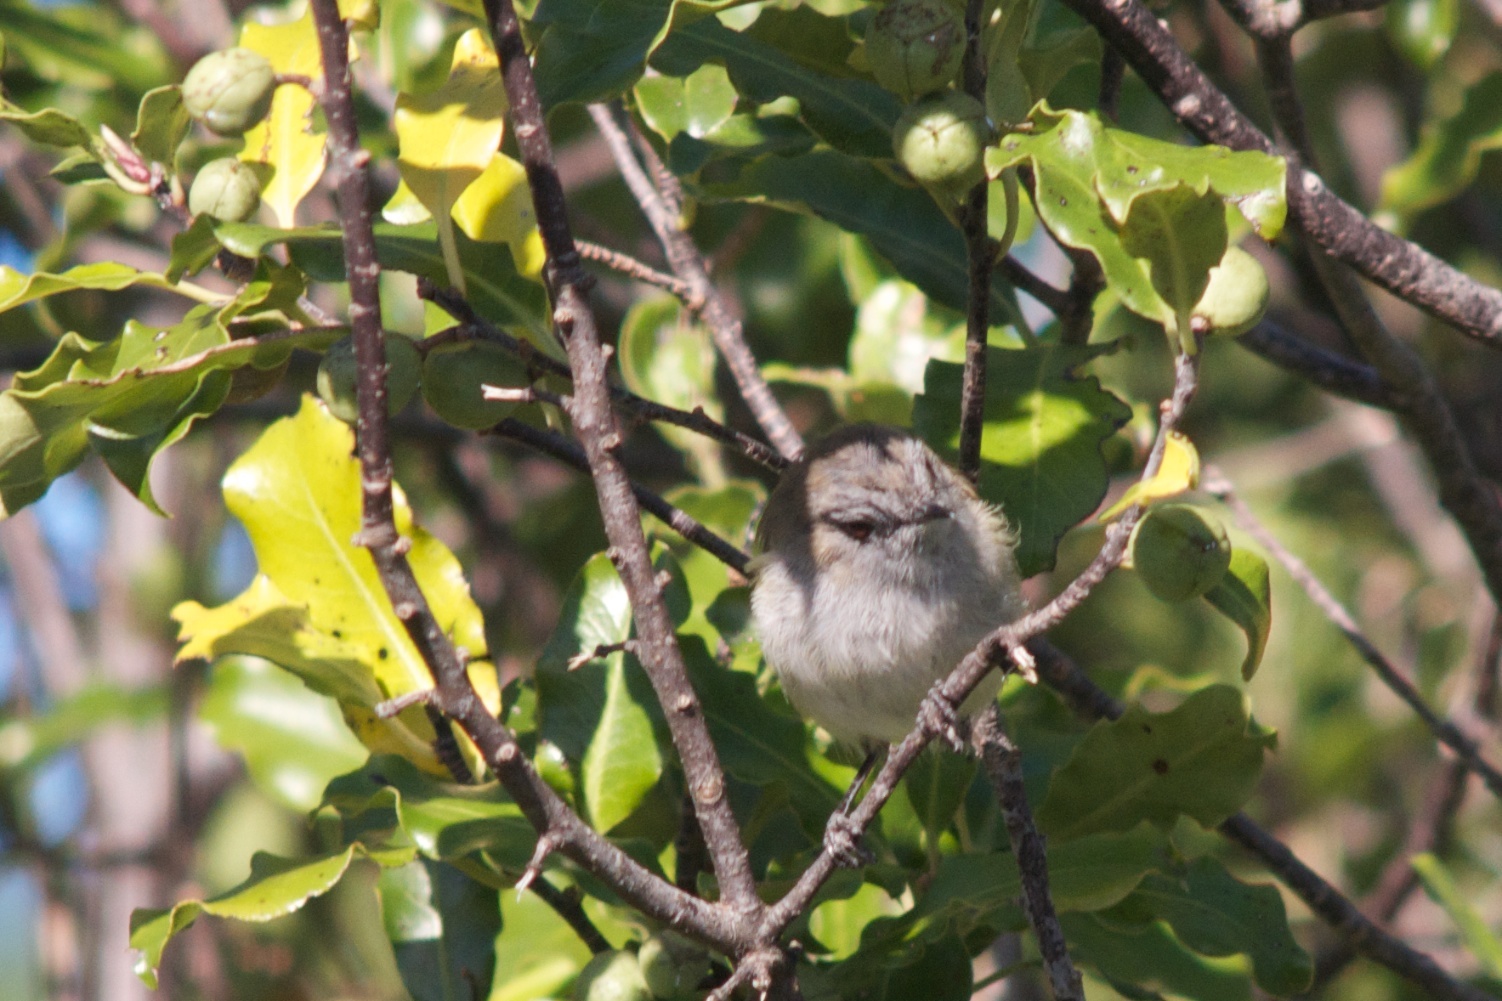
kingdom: Animalia
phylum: Chordata
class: Aves
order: Passeriformes
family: Acanthizidae
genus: Gerygone
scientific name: Gerygone igata
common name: Grey gerygone
